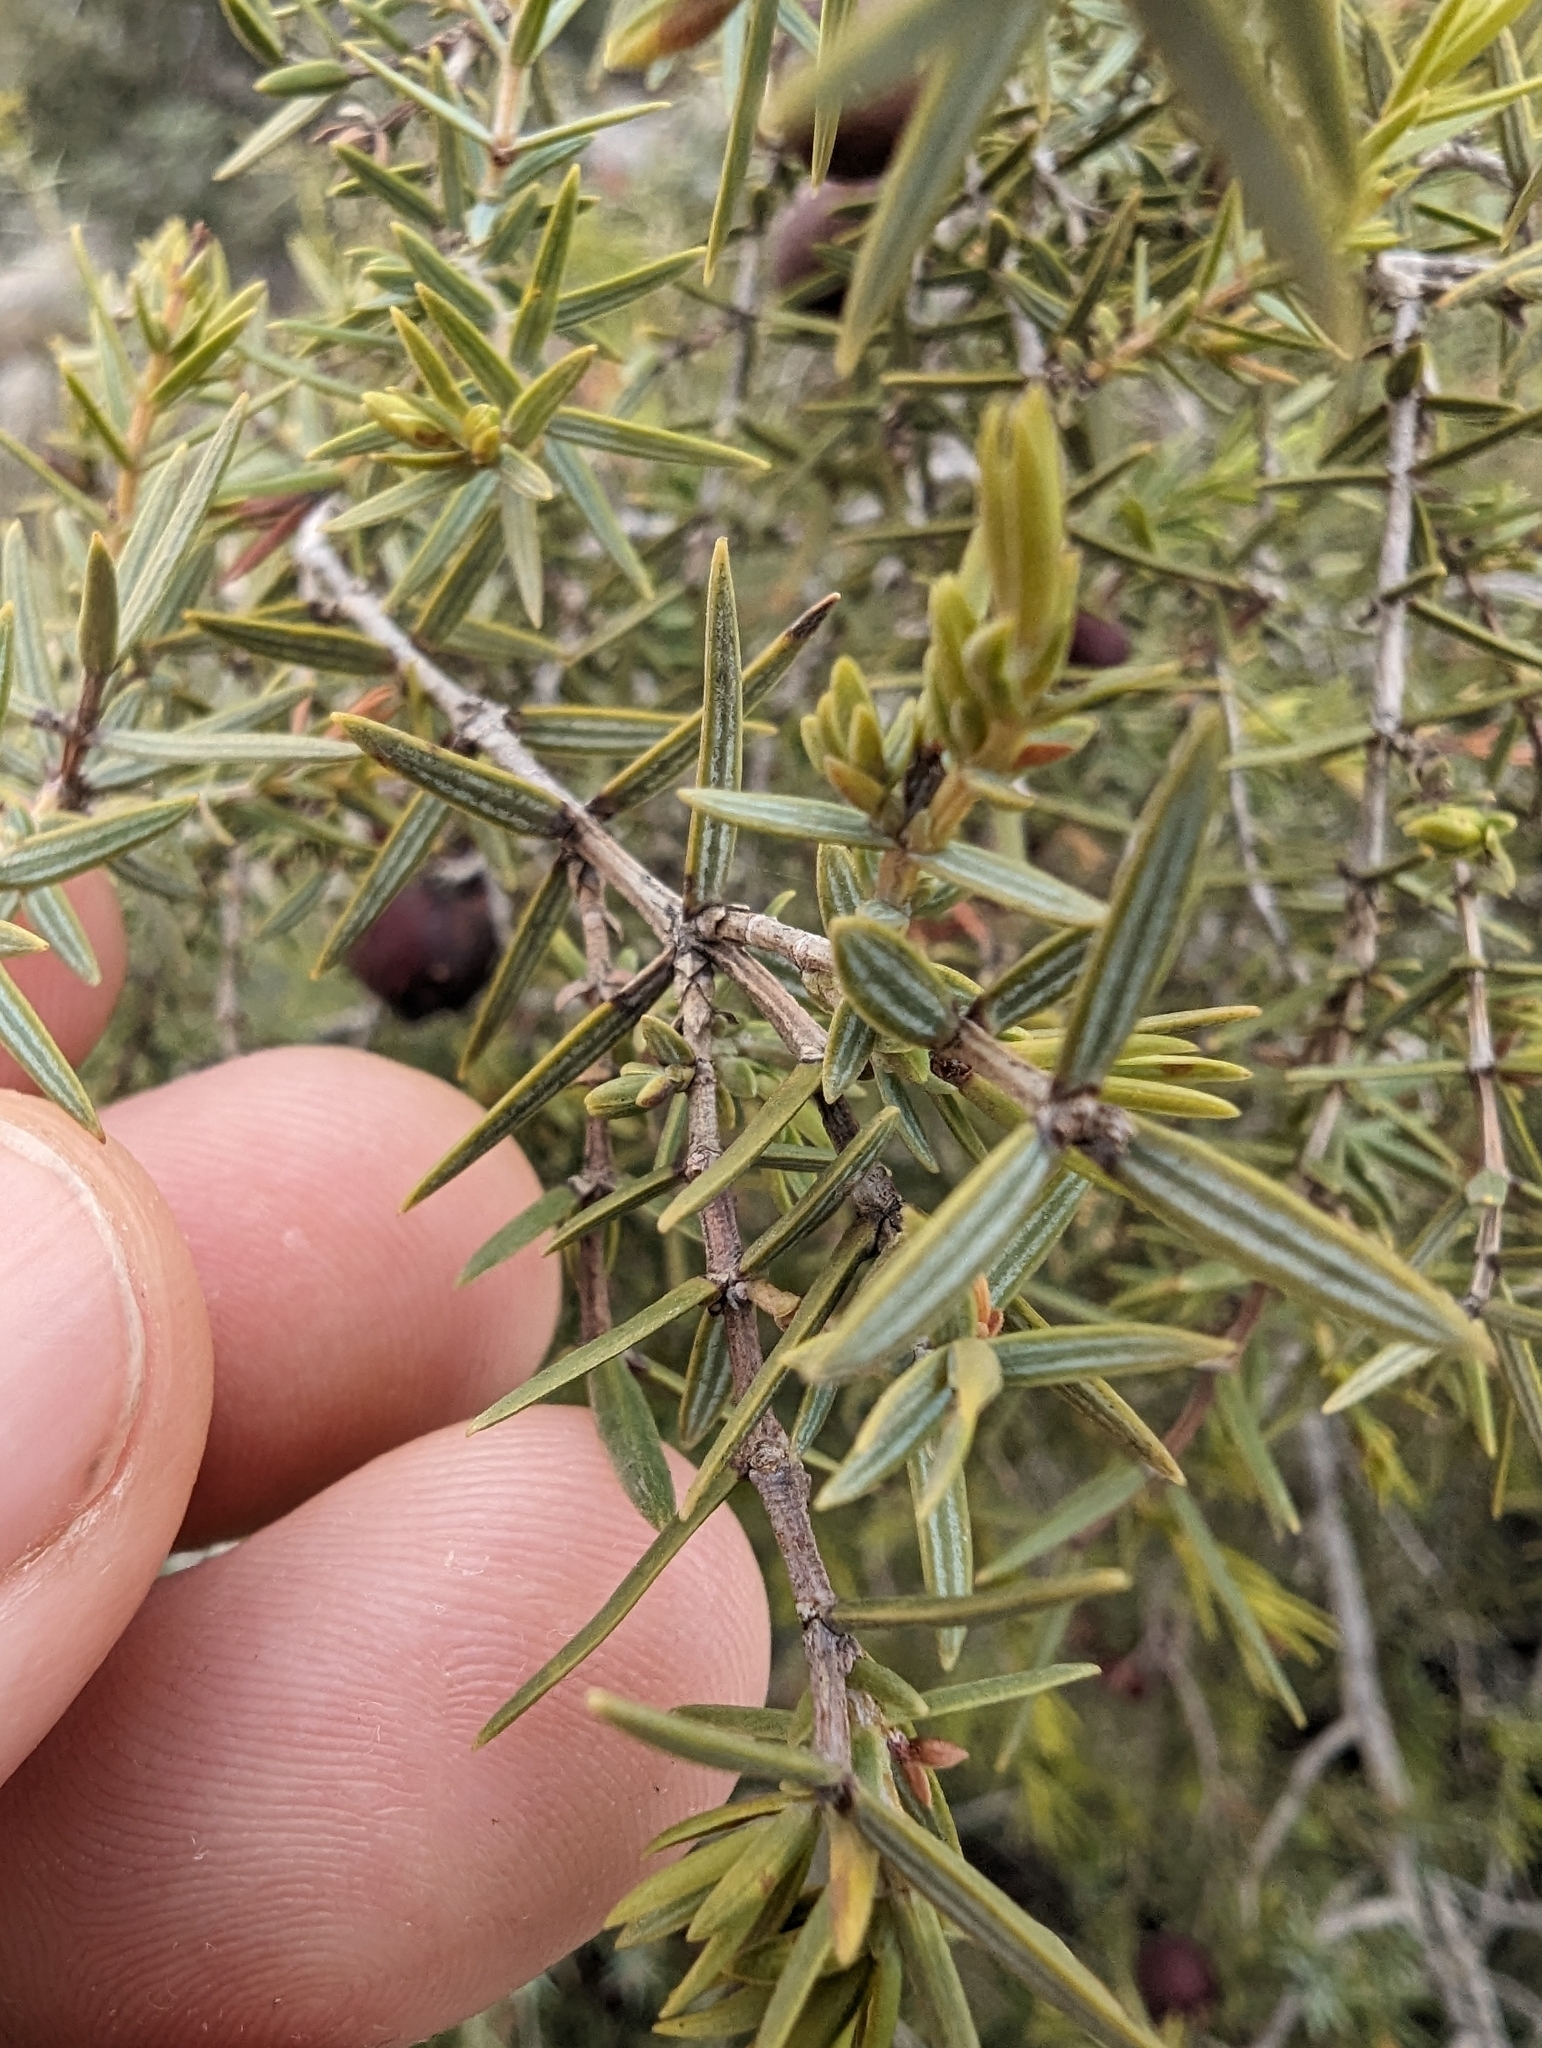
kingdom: Plantae
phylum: Tracheophyta
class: Pinopsida
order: Pinales
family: Cupressaceae
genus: Juniperus
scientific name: Juniperus oxycedrus
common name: Prickly juniper
